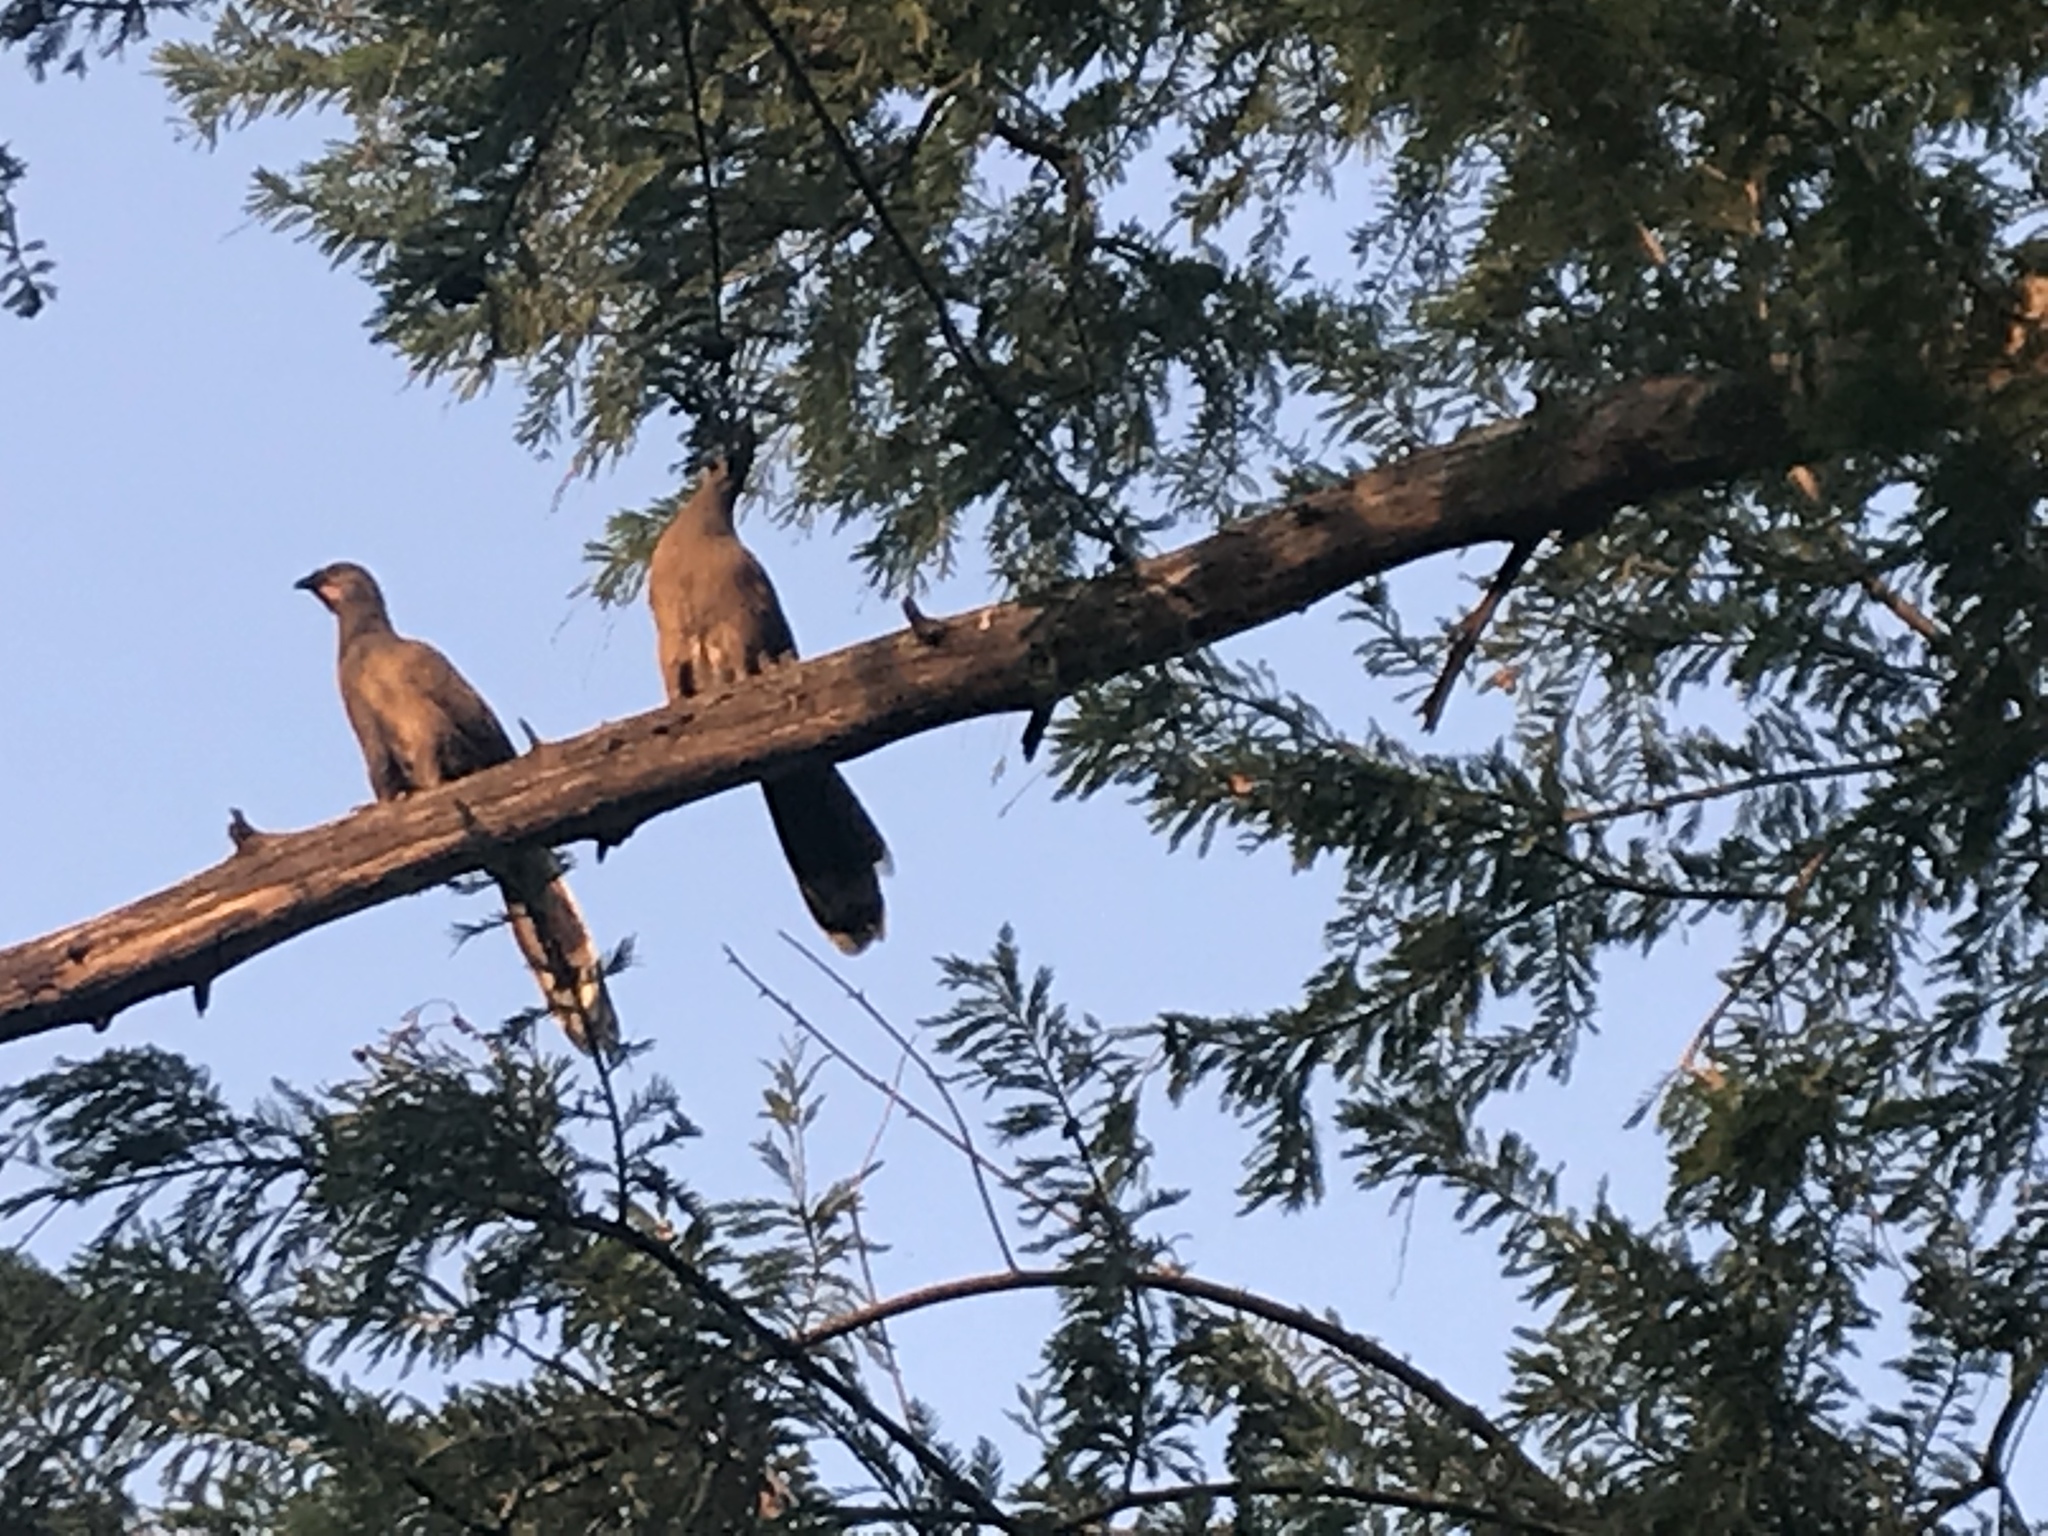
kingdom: Animalia
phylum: Chordata
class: Aves
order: Galliformes
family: Cracidae
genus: Ortalis
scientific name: Ortalis vetula
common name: Plain chachalaca
